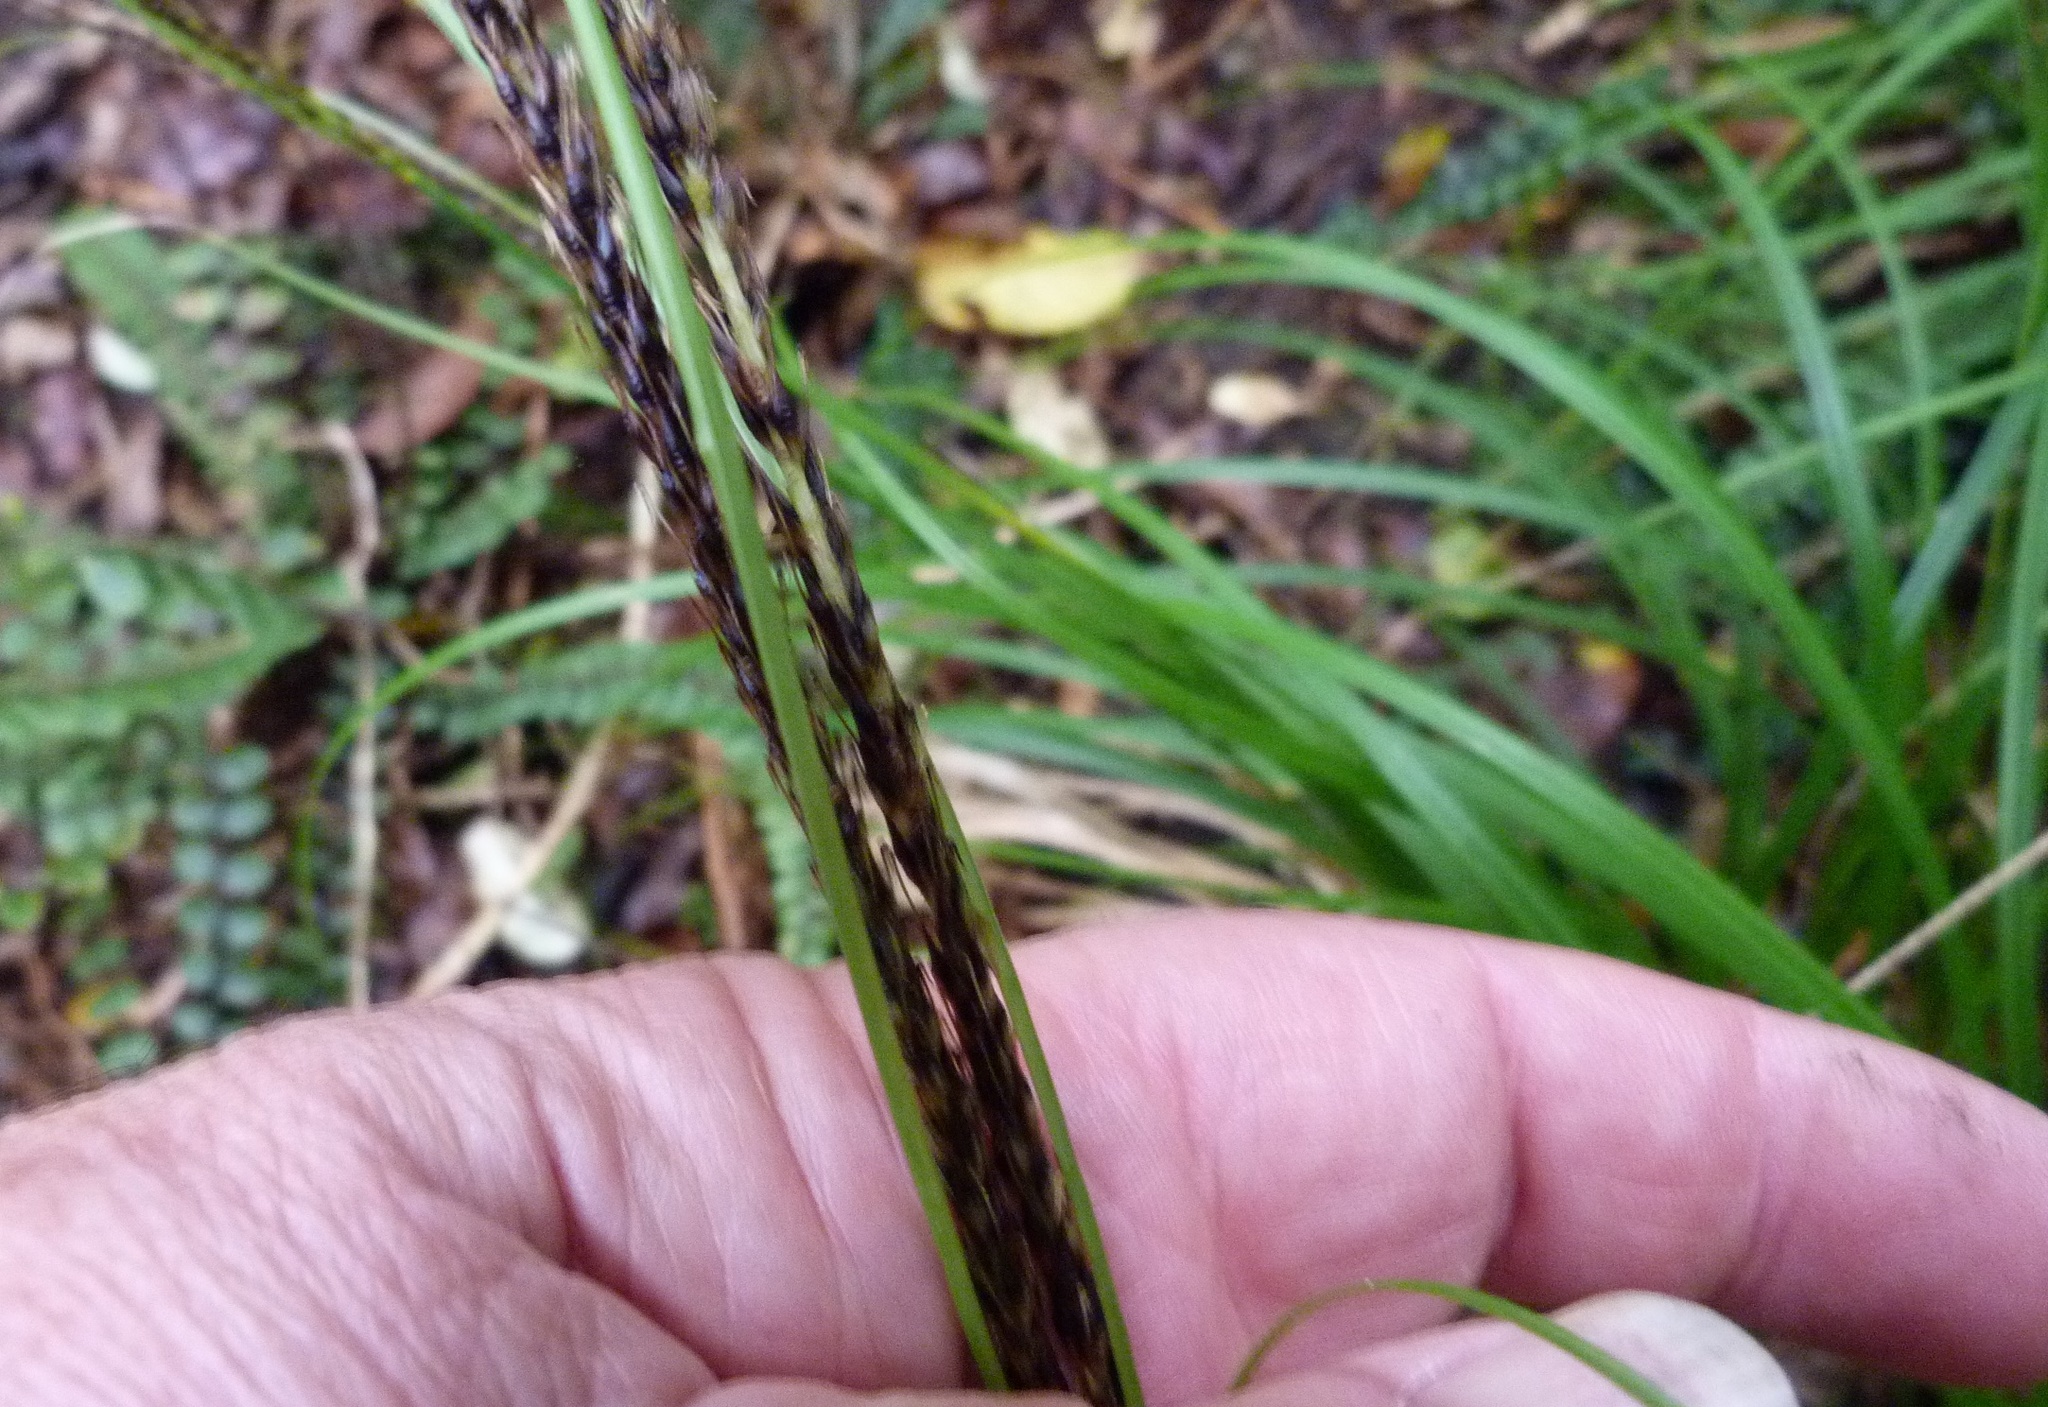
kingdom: Plantae
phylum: Tracheophyta
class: Liliopsida
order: Poales
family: Cyperaceae
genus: Carex
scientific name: Carex uncinata
